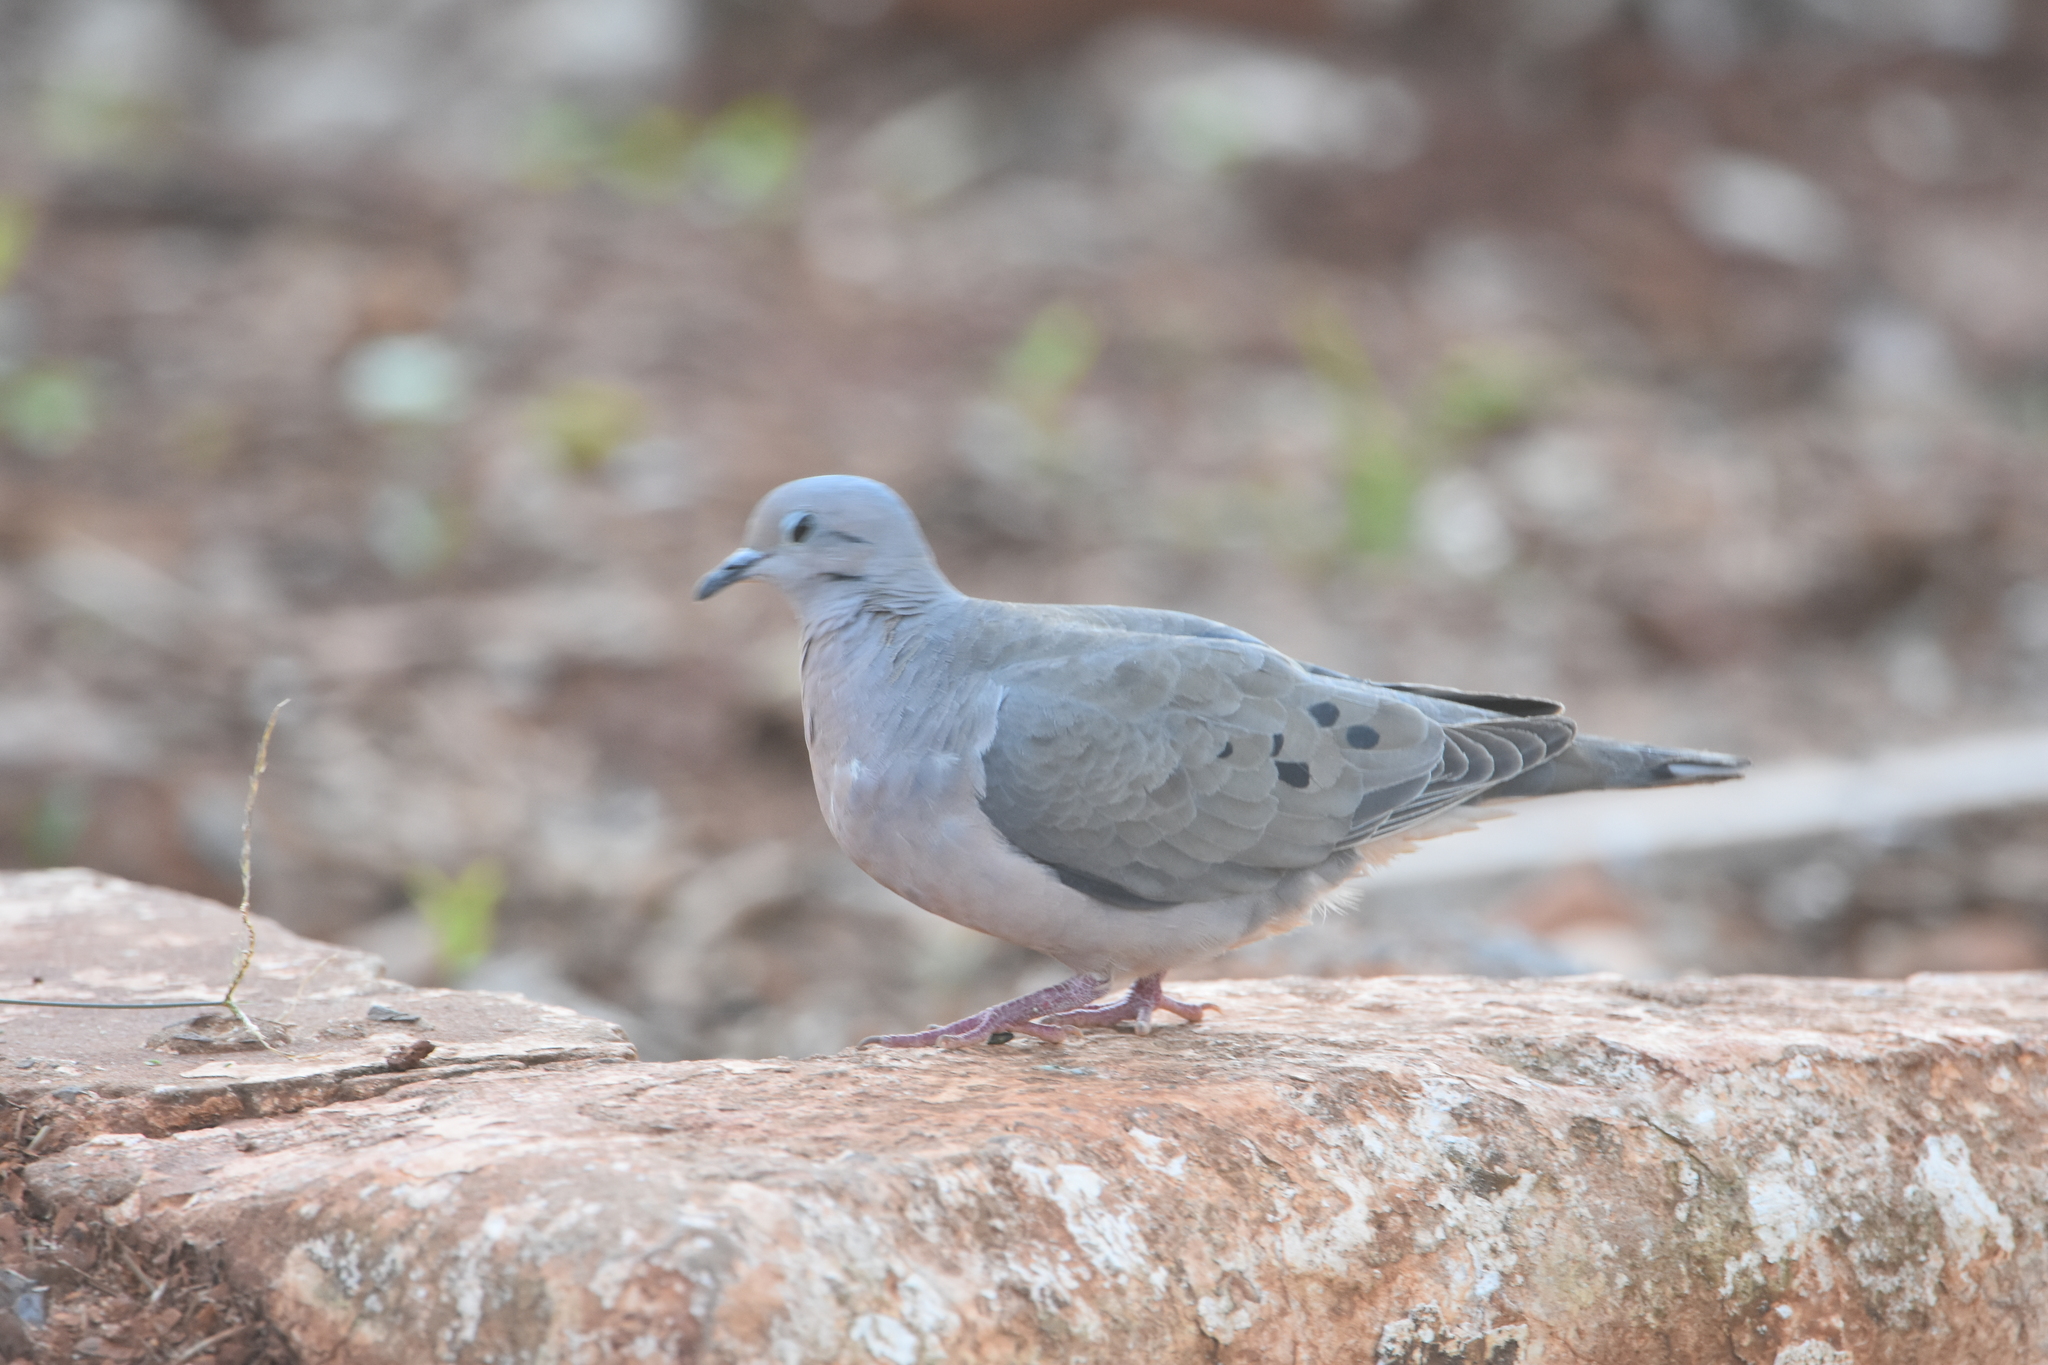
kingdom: Animalia
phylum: Chordata
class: Aves
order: Columbiformes
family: Columbidae
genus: Zenaida
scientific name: Zenaida auriculata
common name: Eared dove
